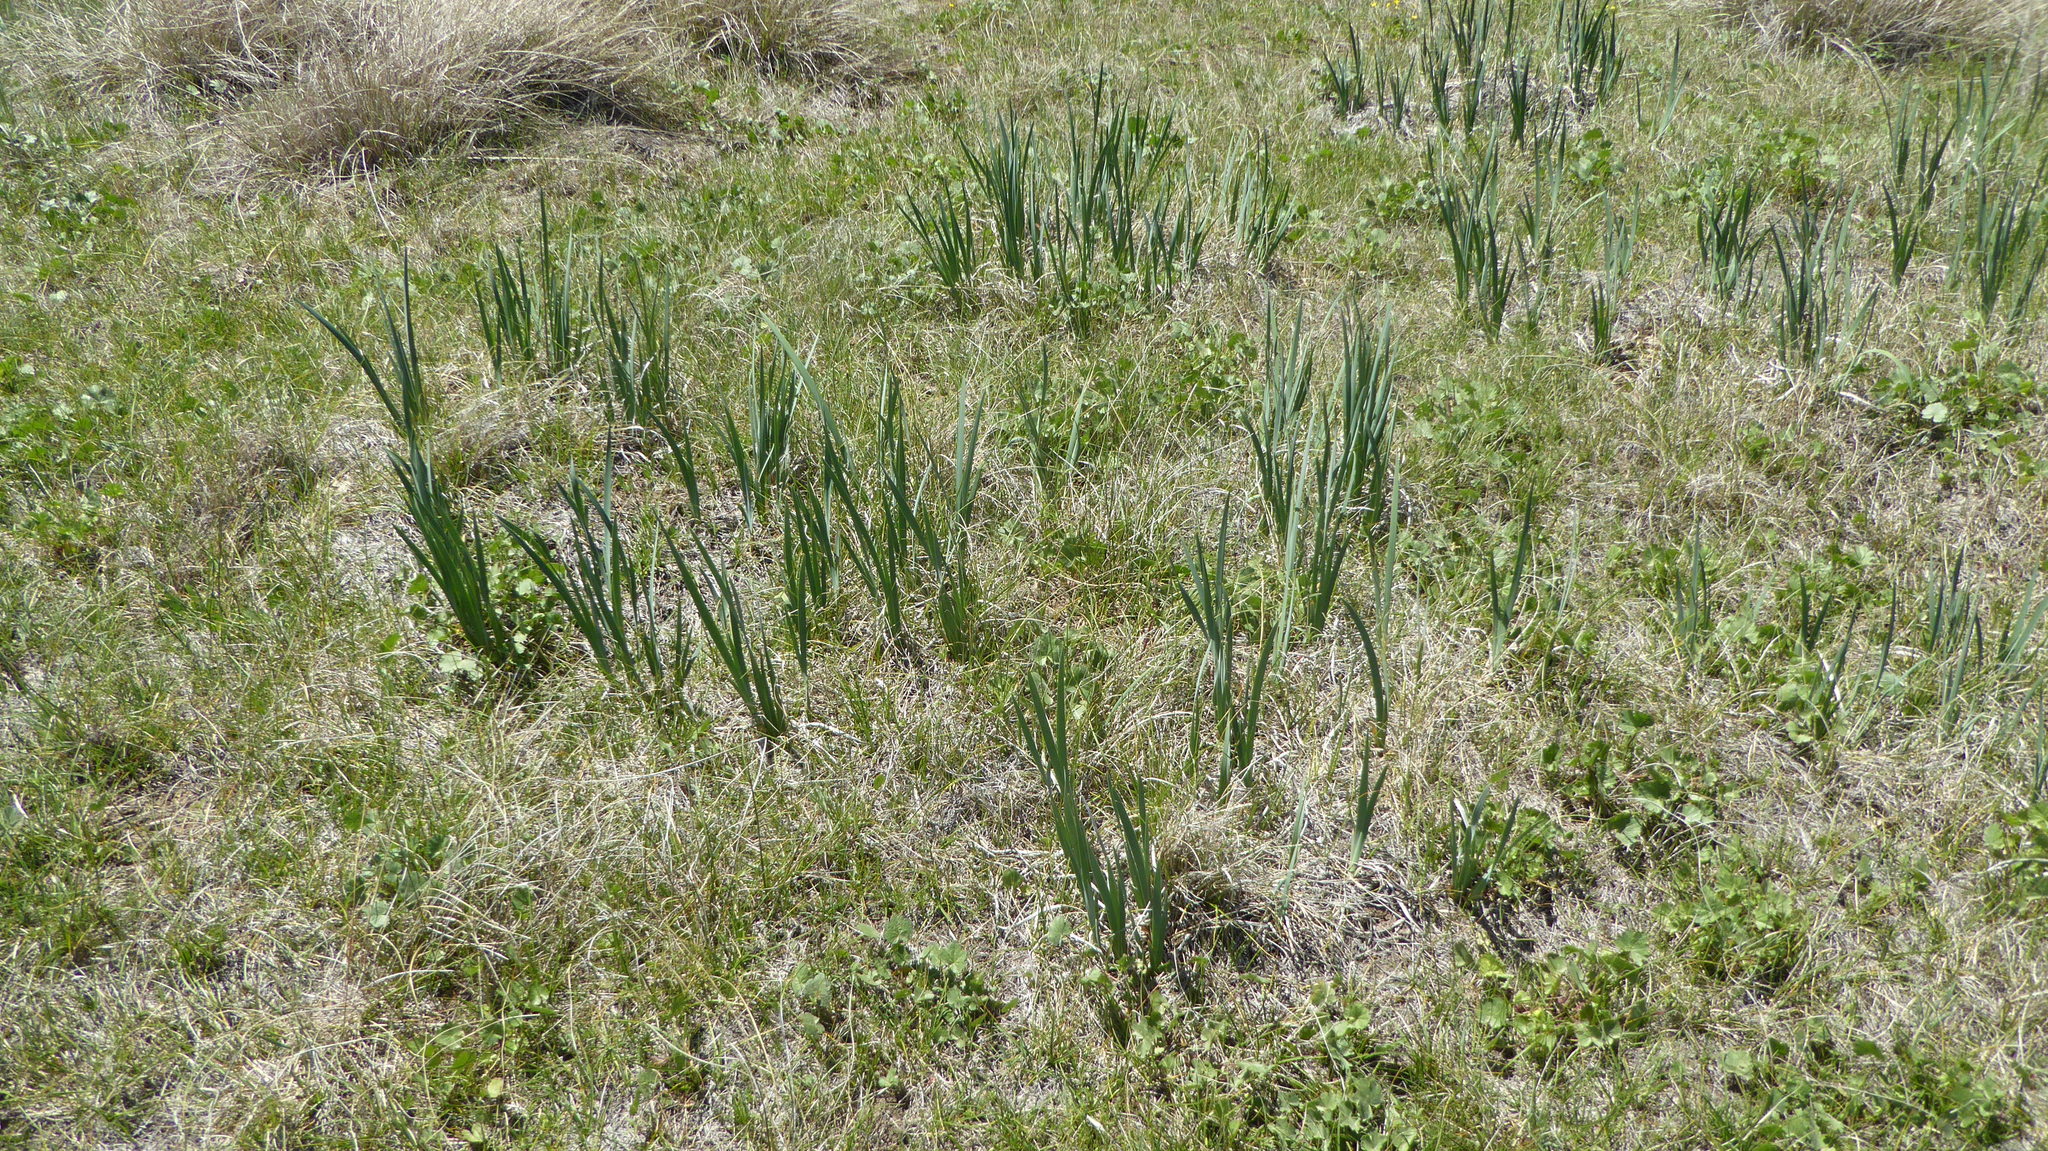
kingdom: Plantae
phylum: Tracheophyta
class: Liliopsida
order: Asparagales
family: Iridaceae
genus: Iris
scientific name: Iris missouriensis
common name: Rocky mountain iris
